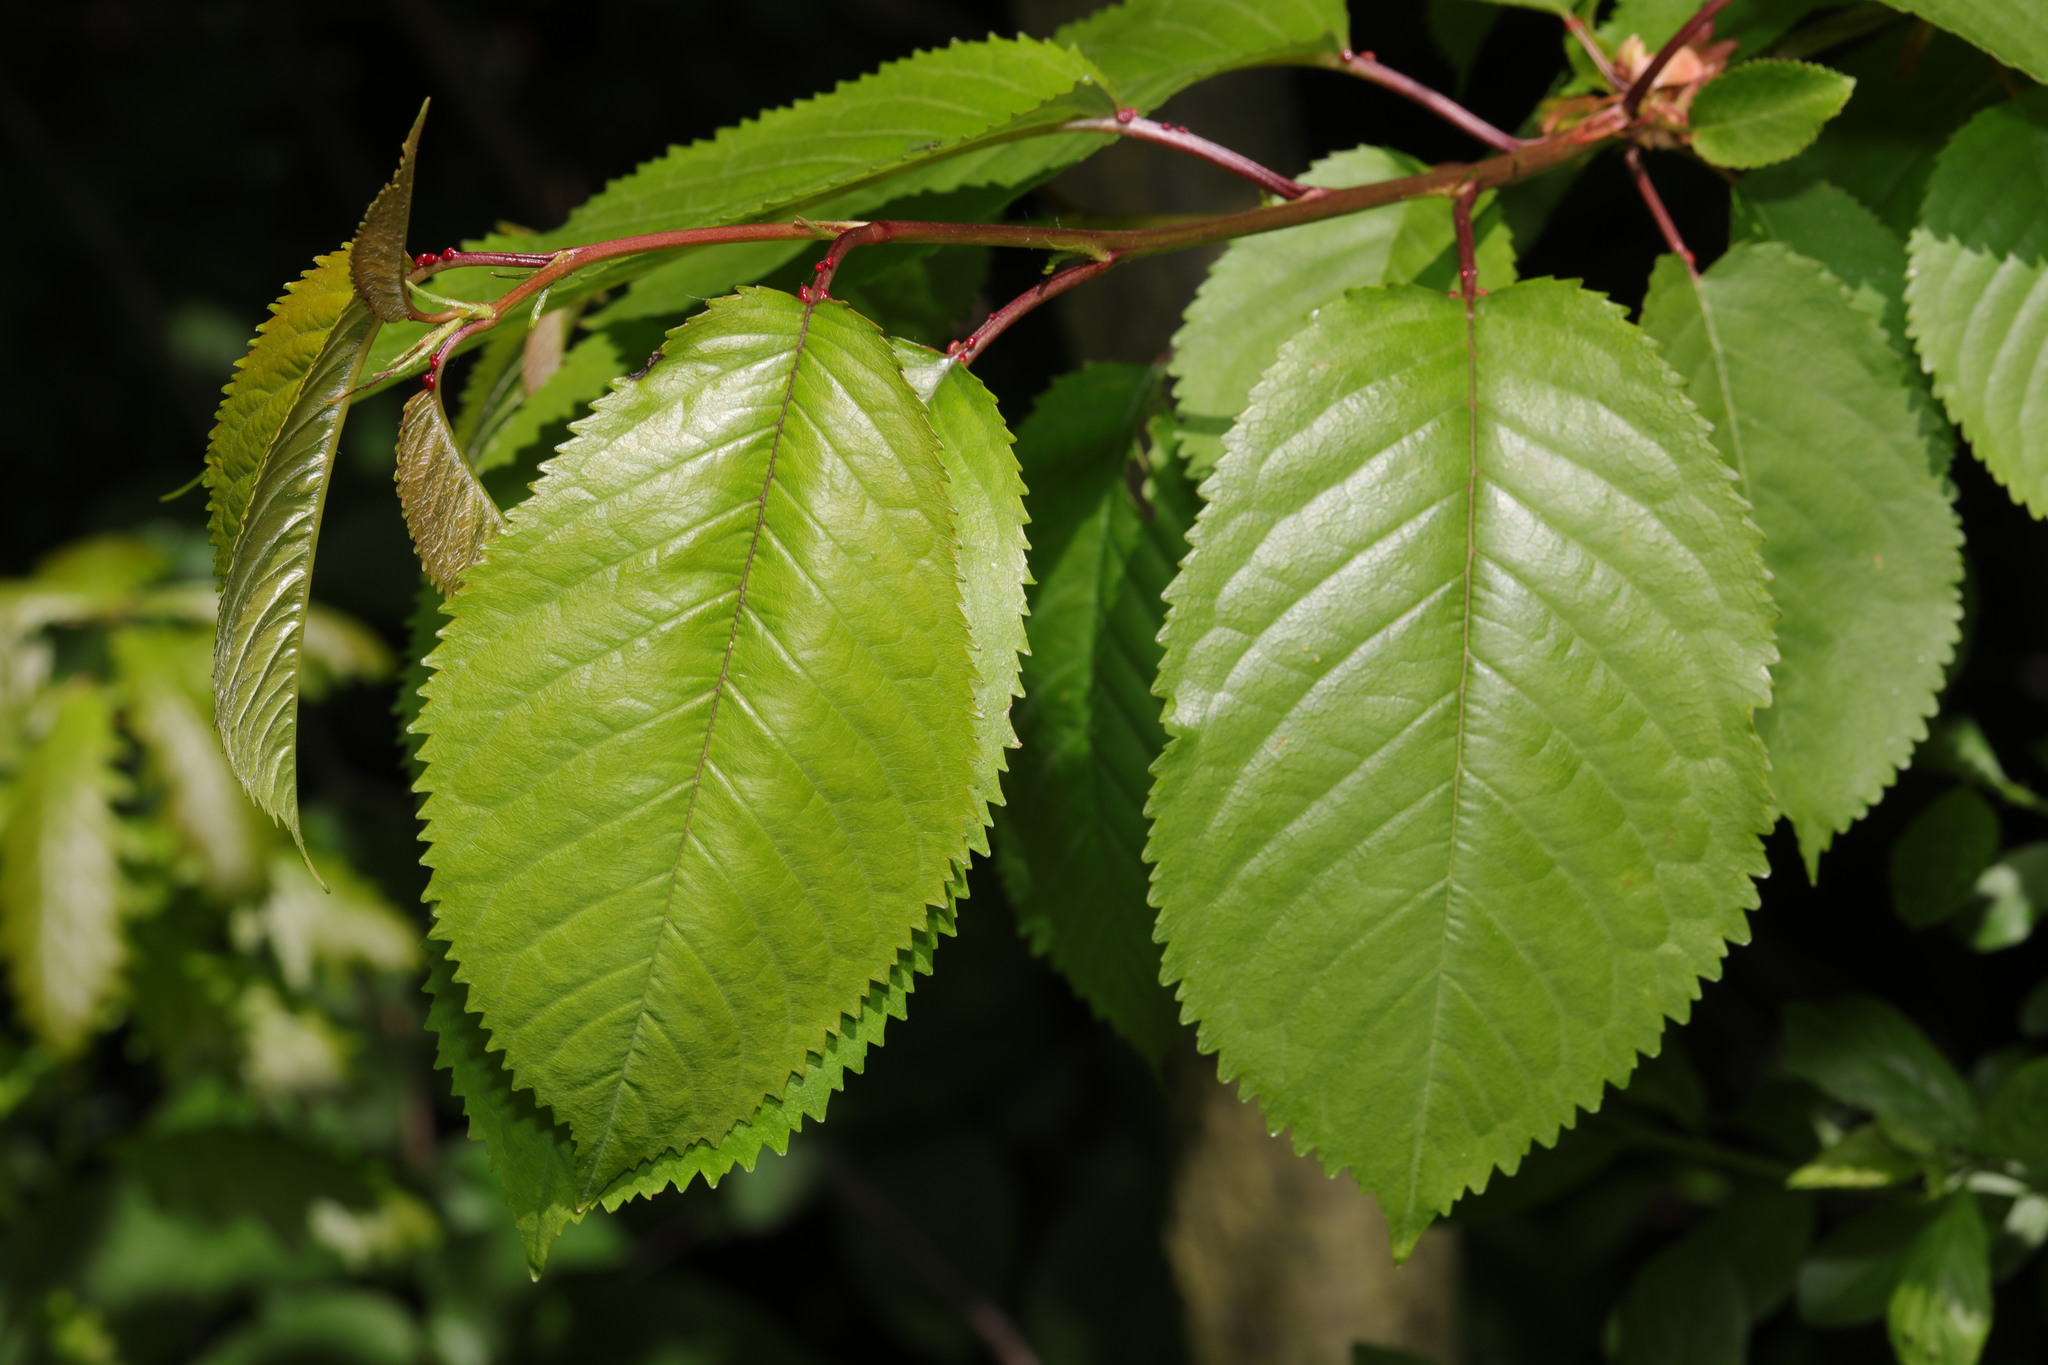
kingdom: Plantae
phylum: Tracheophyta
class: Magnoliopsida
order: Rosales
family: Rosaceae
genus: Prunus
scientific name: Prunus avium
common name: Sweet cherry
